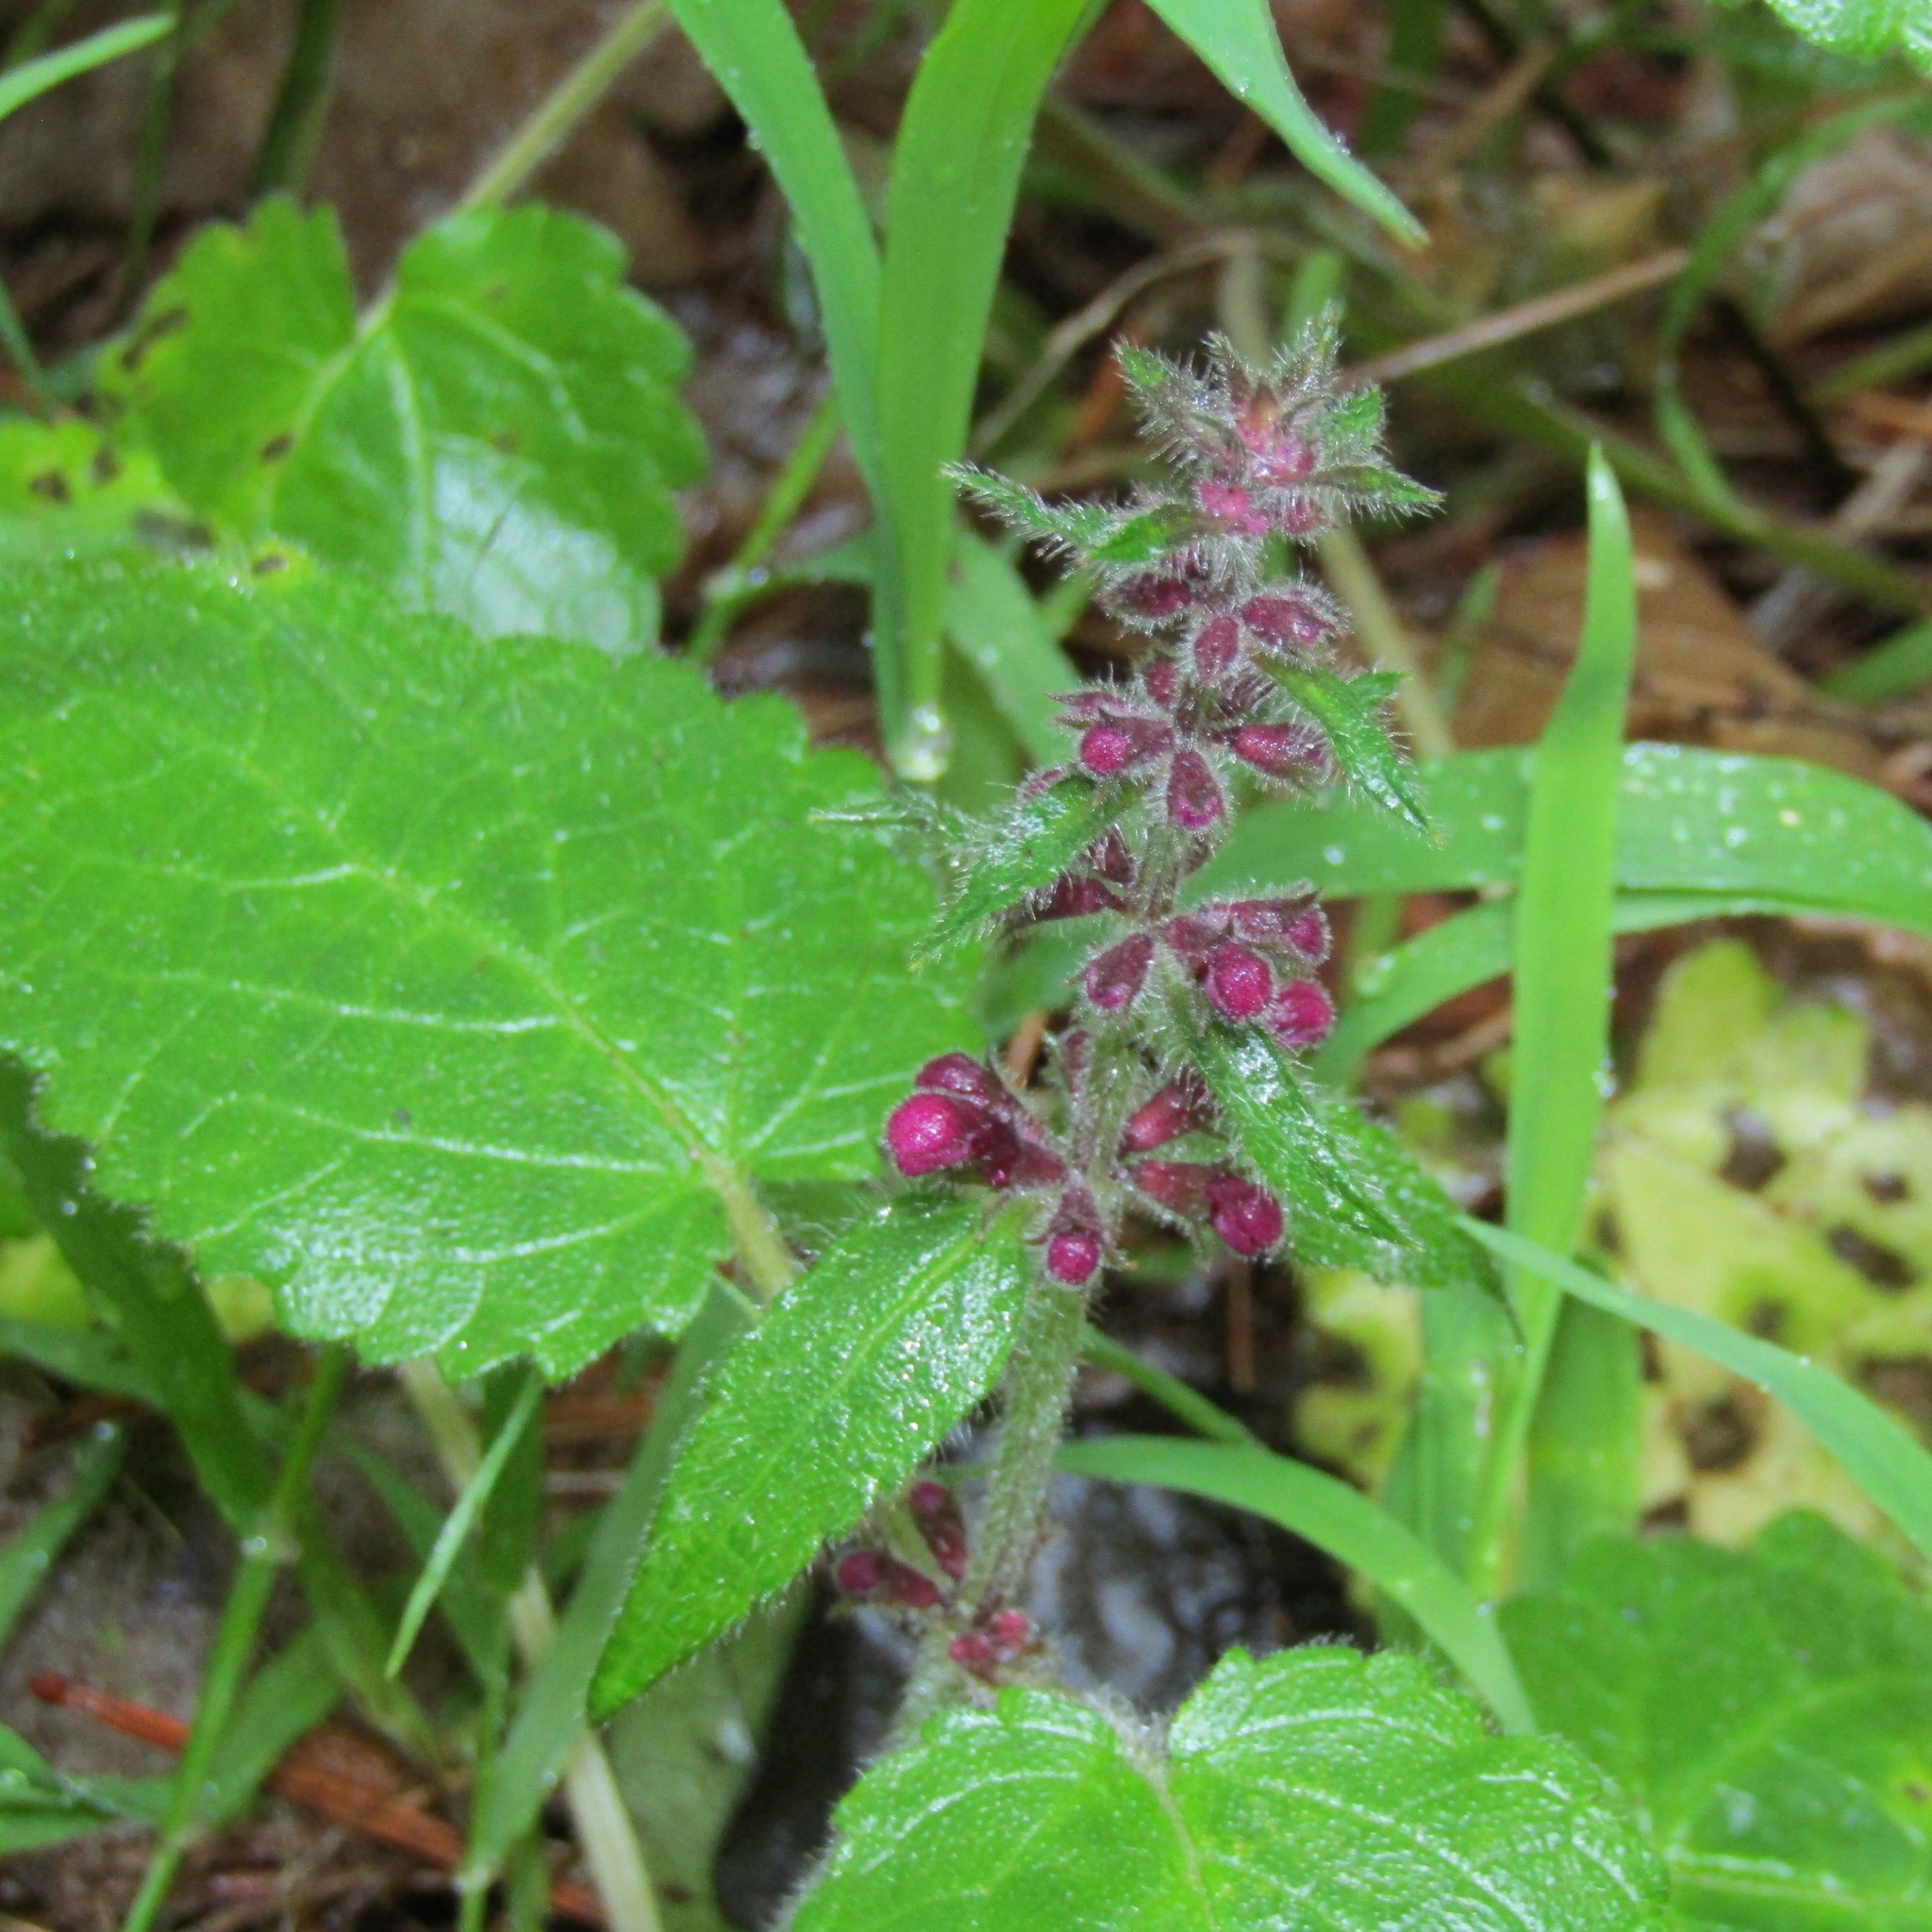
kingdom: Plantae
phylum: Tracheophyta
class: Magnoliopsida
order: Lamiales
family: Lamiaceae
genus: Stachys
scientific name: Stachys sylvatica
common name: Hedge woundwort
